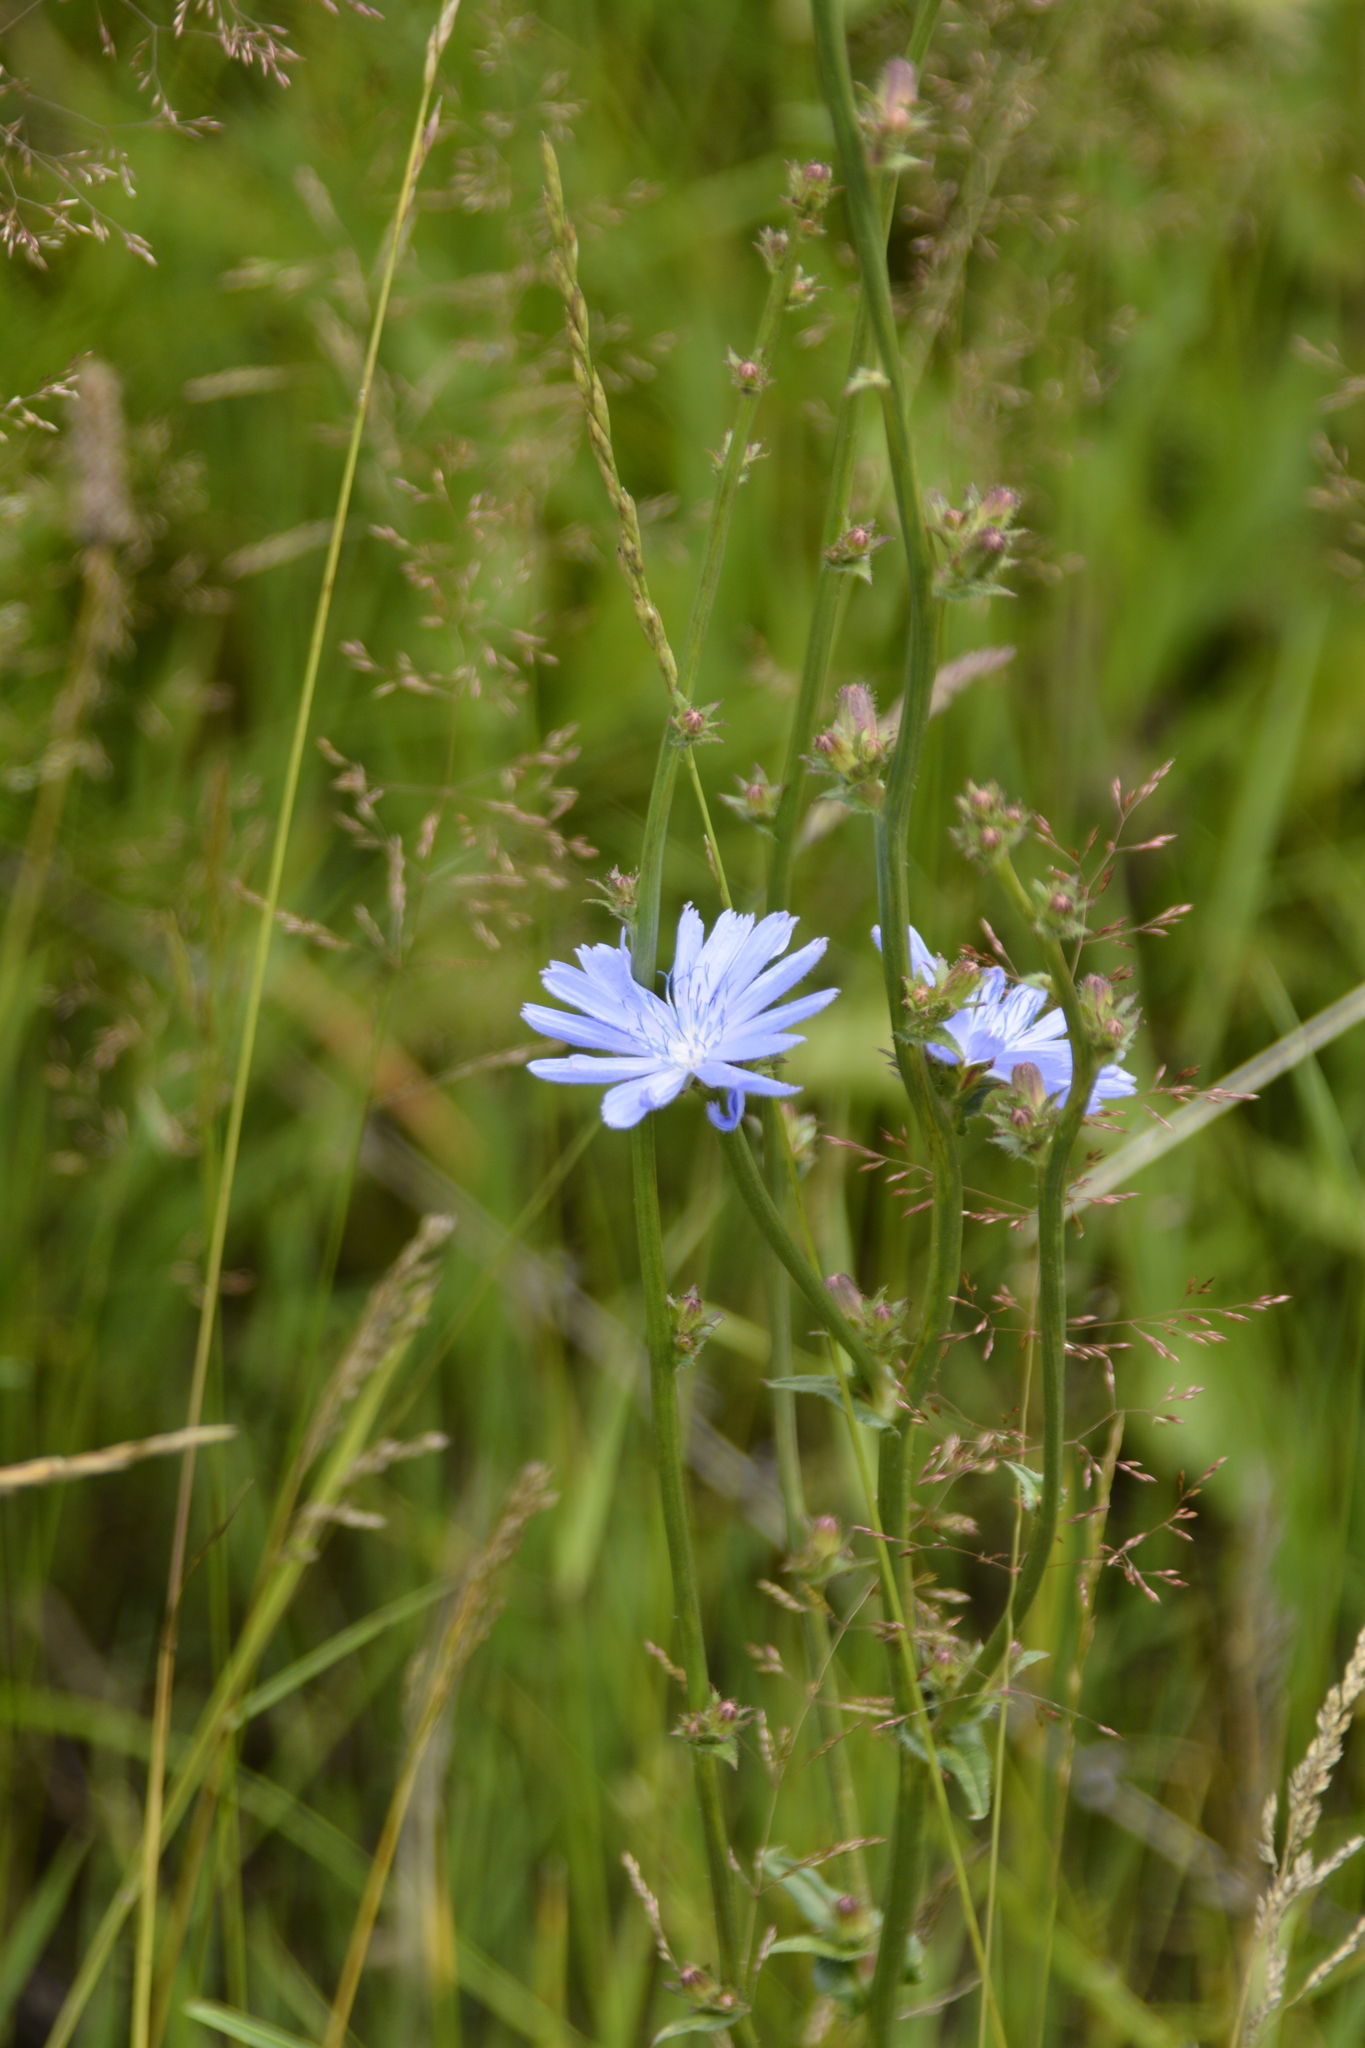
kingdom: Plantae
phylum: Tracheophyta
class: Magnoliopsida
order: Asterales
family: Asteraceae
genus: Cichorium
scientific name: Cichorium intybus
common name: Chicory
